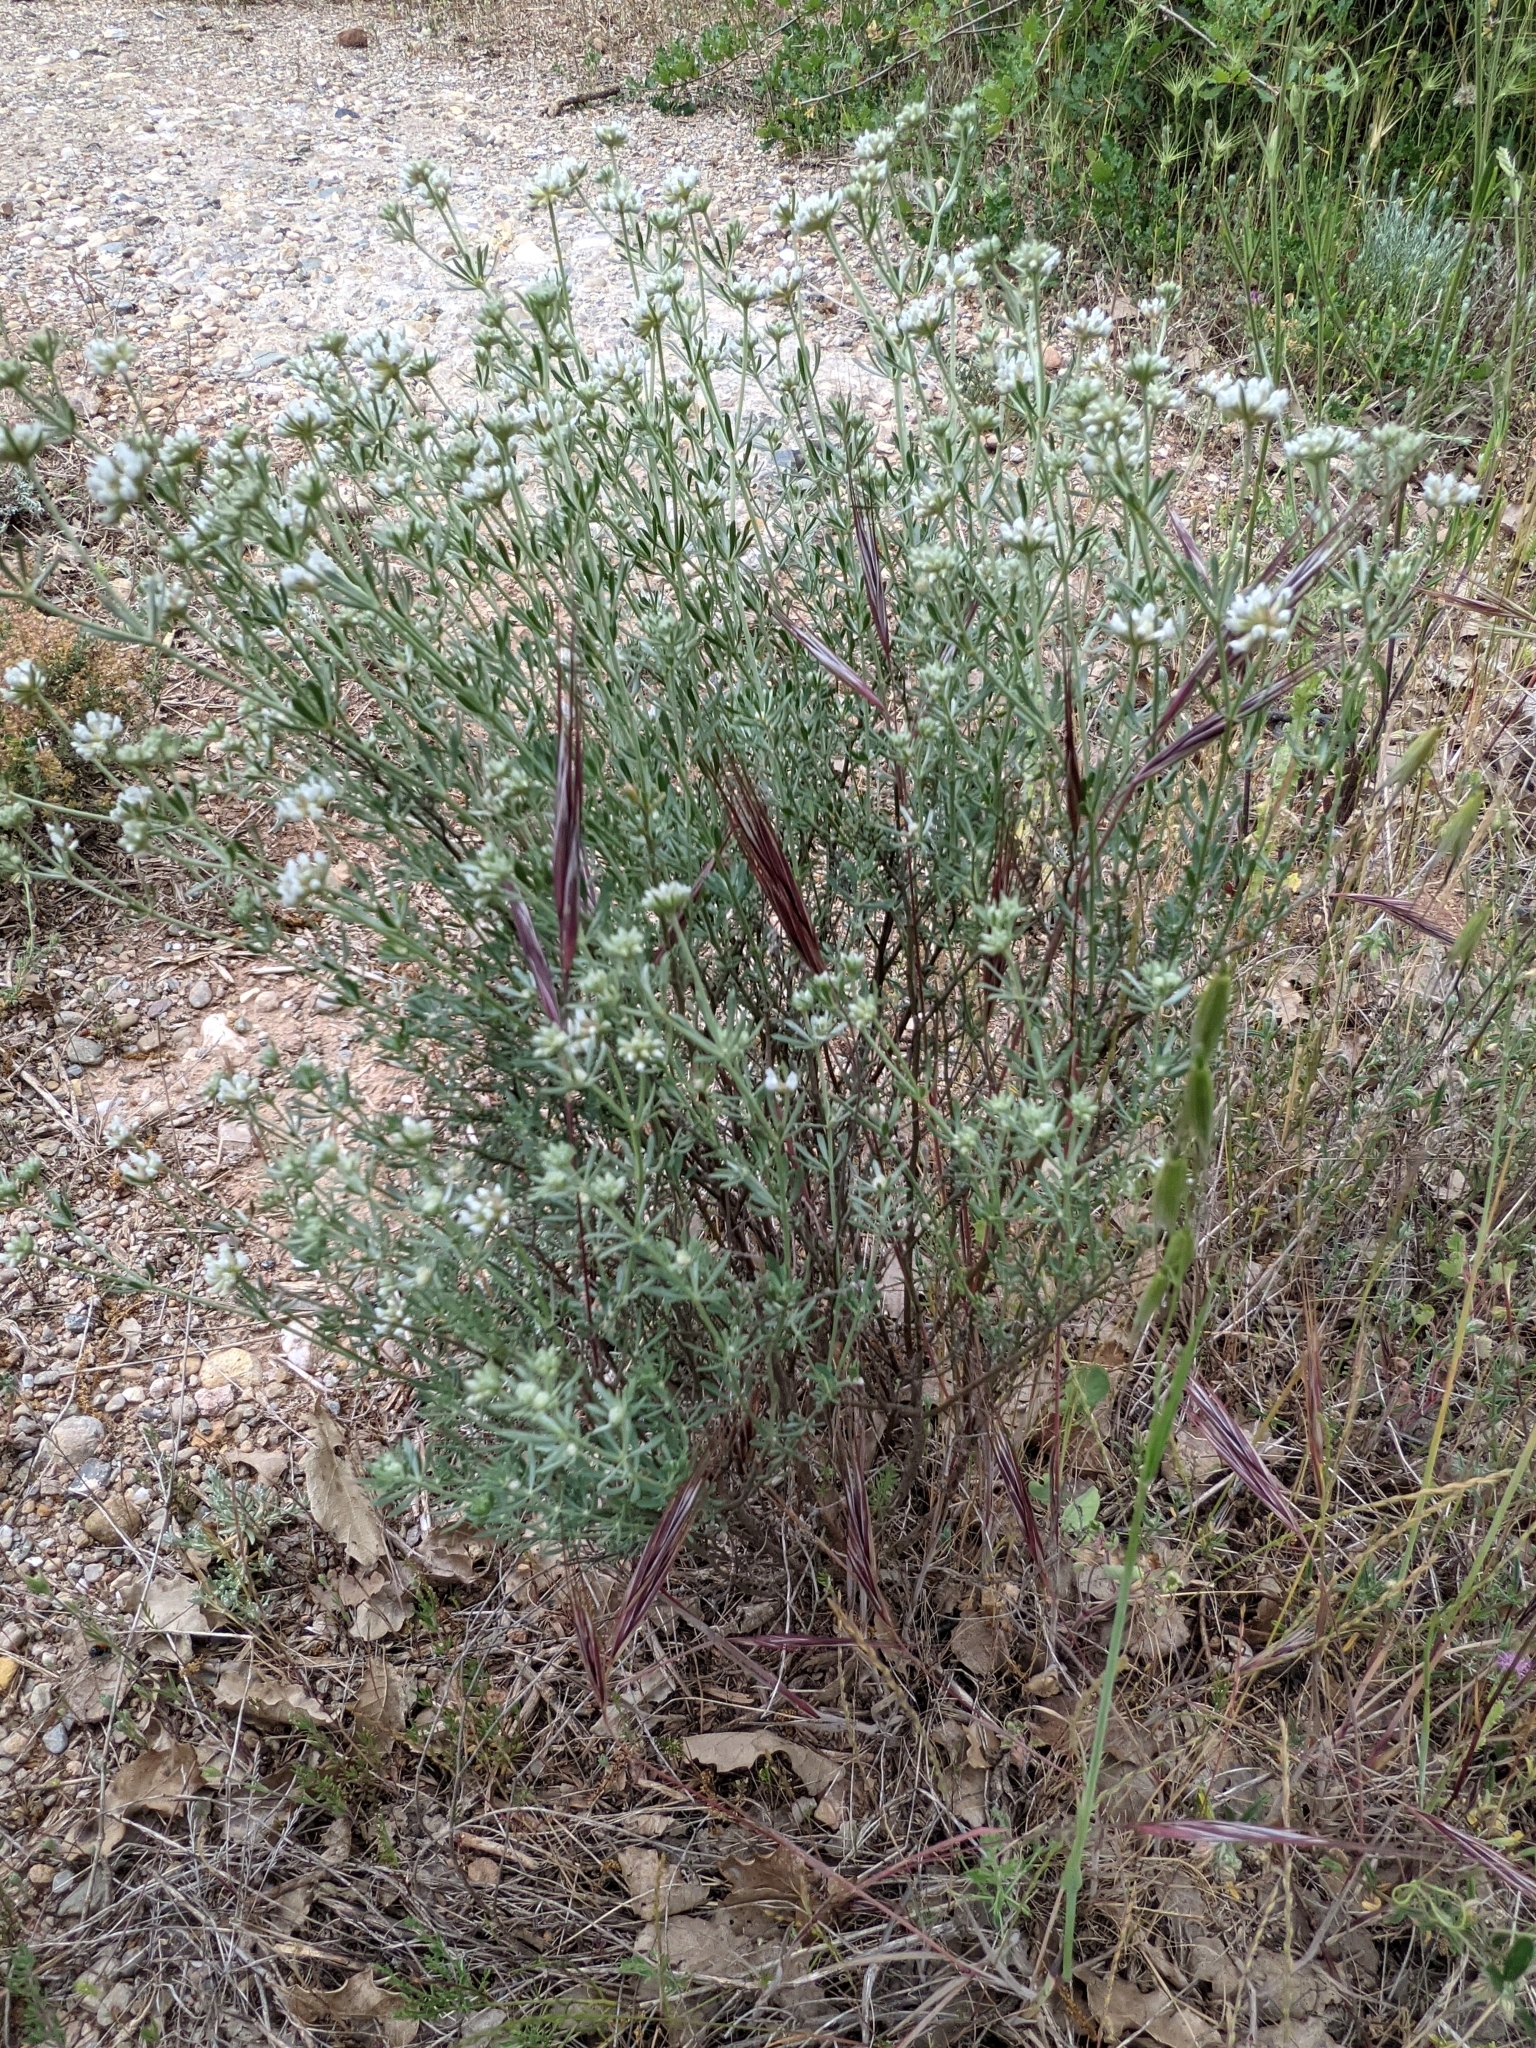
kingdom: Plantae
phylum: Tracheophyta
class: Magnoliopsida
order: Fabales
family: Fabaceae
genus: Lotus
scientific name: Lotus dorycnium
